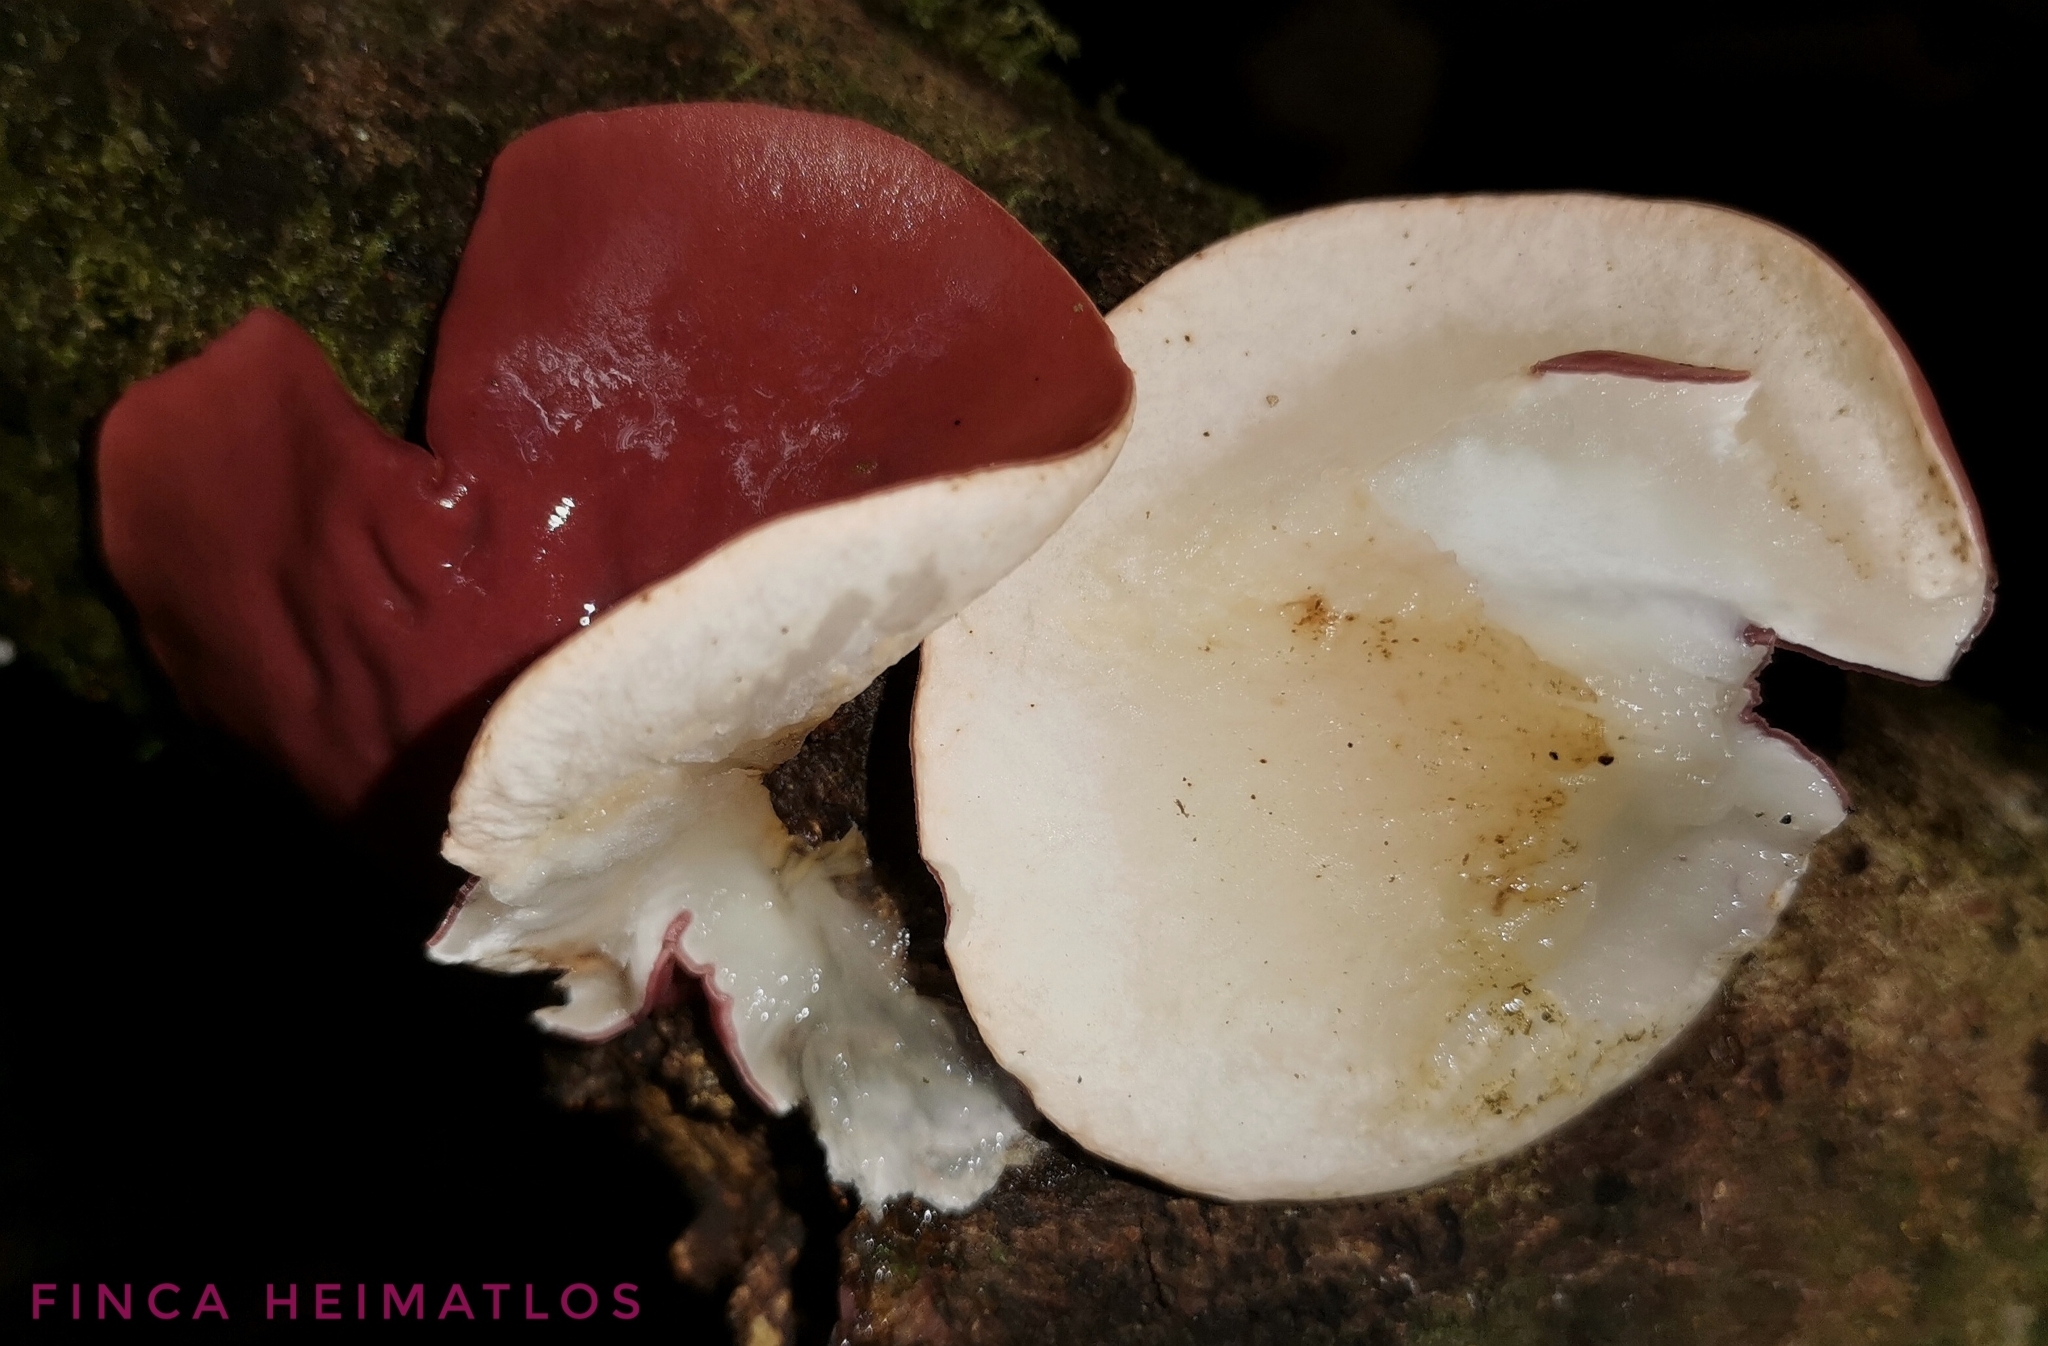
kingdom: Fungi
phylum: Ascomycota
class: Pezizomycetes
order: Pezizales
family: Sarcoscyphaceae
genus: Phillipsia
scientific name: Phillipsia domingensis
